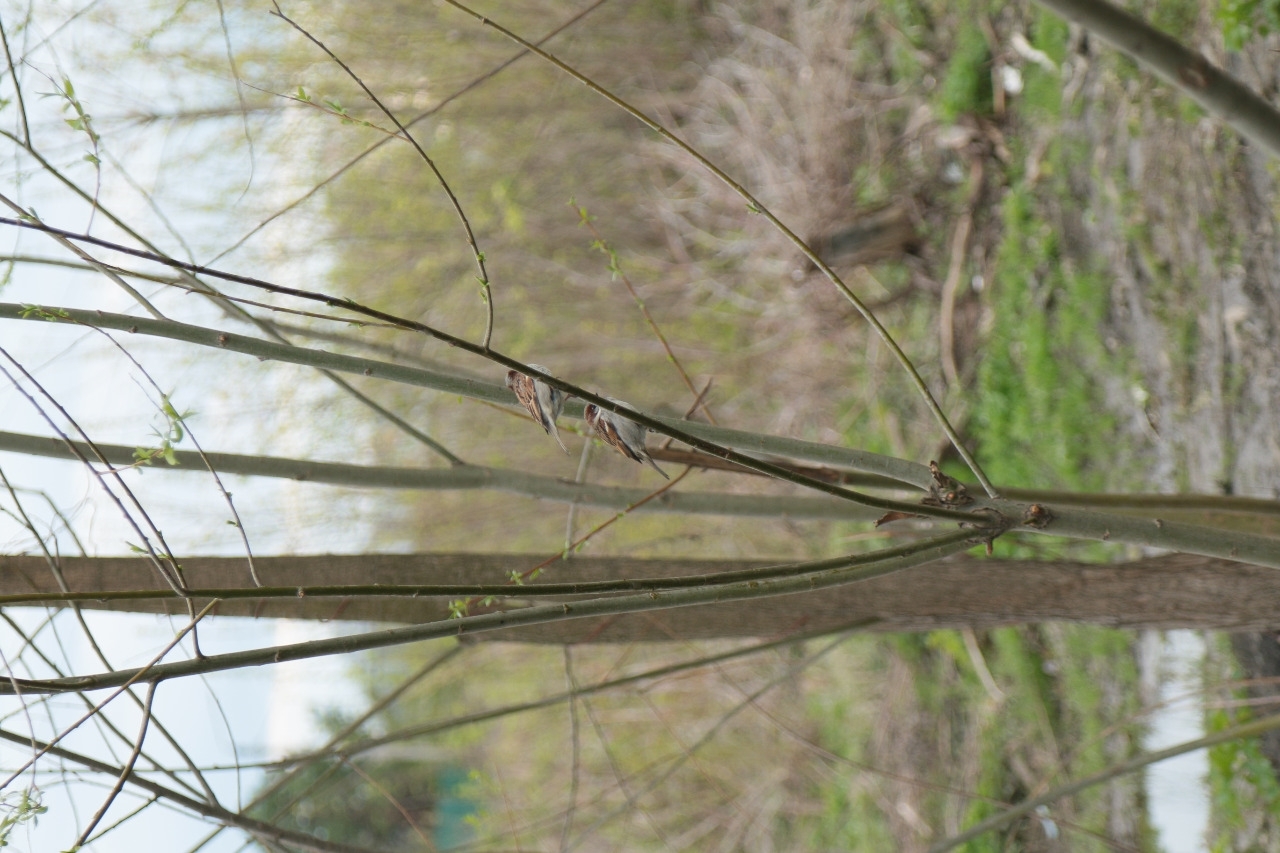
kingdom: Animalia
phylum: Chordata
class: Aves
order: Passeriformes
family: Passeridae
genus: Passer
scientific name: Passer montanus
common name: Eurasian tree sparrow
